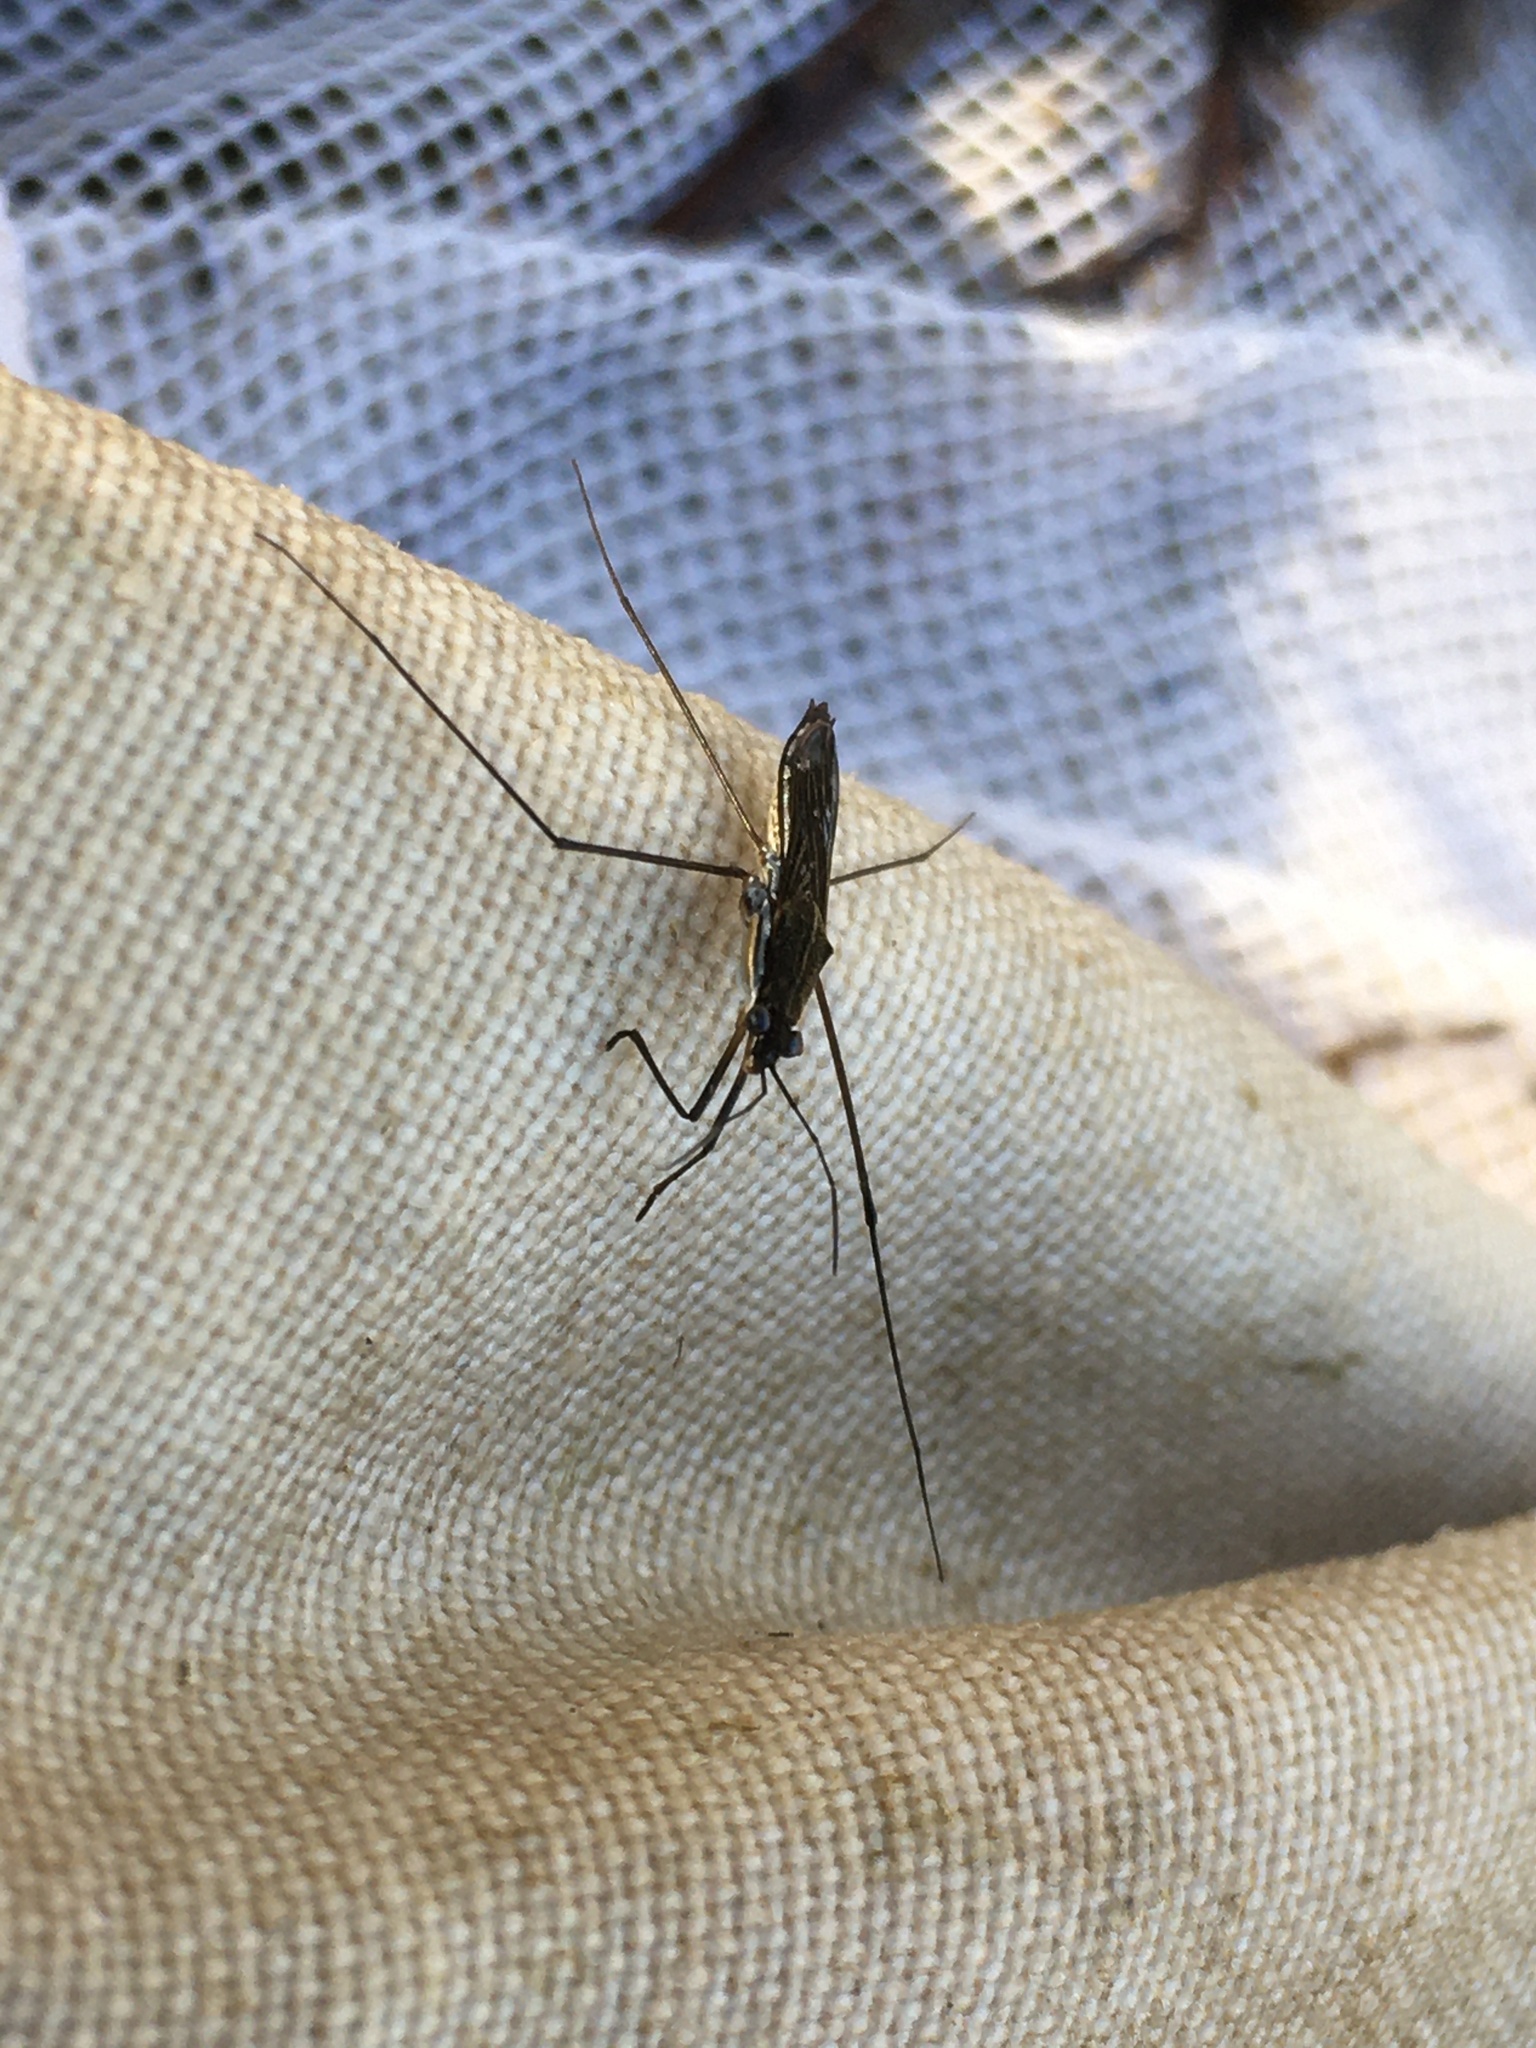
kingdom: Animalia
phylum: Arthropoda
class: Insecta
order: Hemiptera
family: Gerridae
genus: Limnoporus
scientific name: Limnoporus canaliculatus
